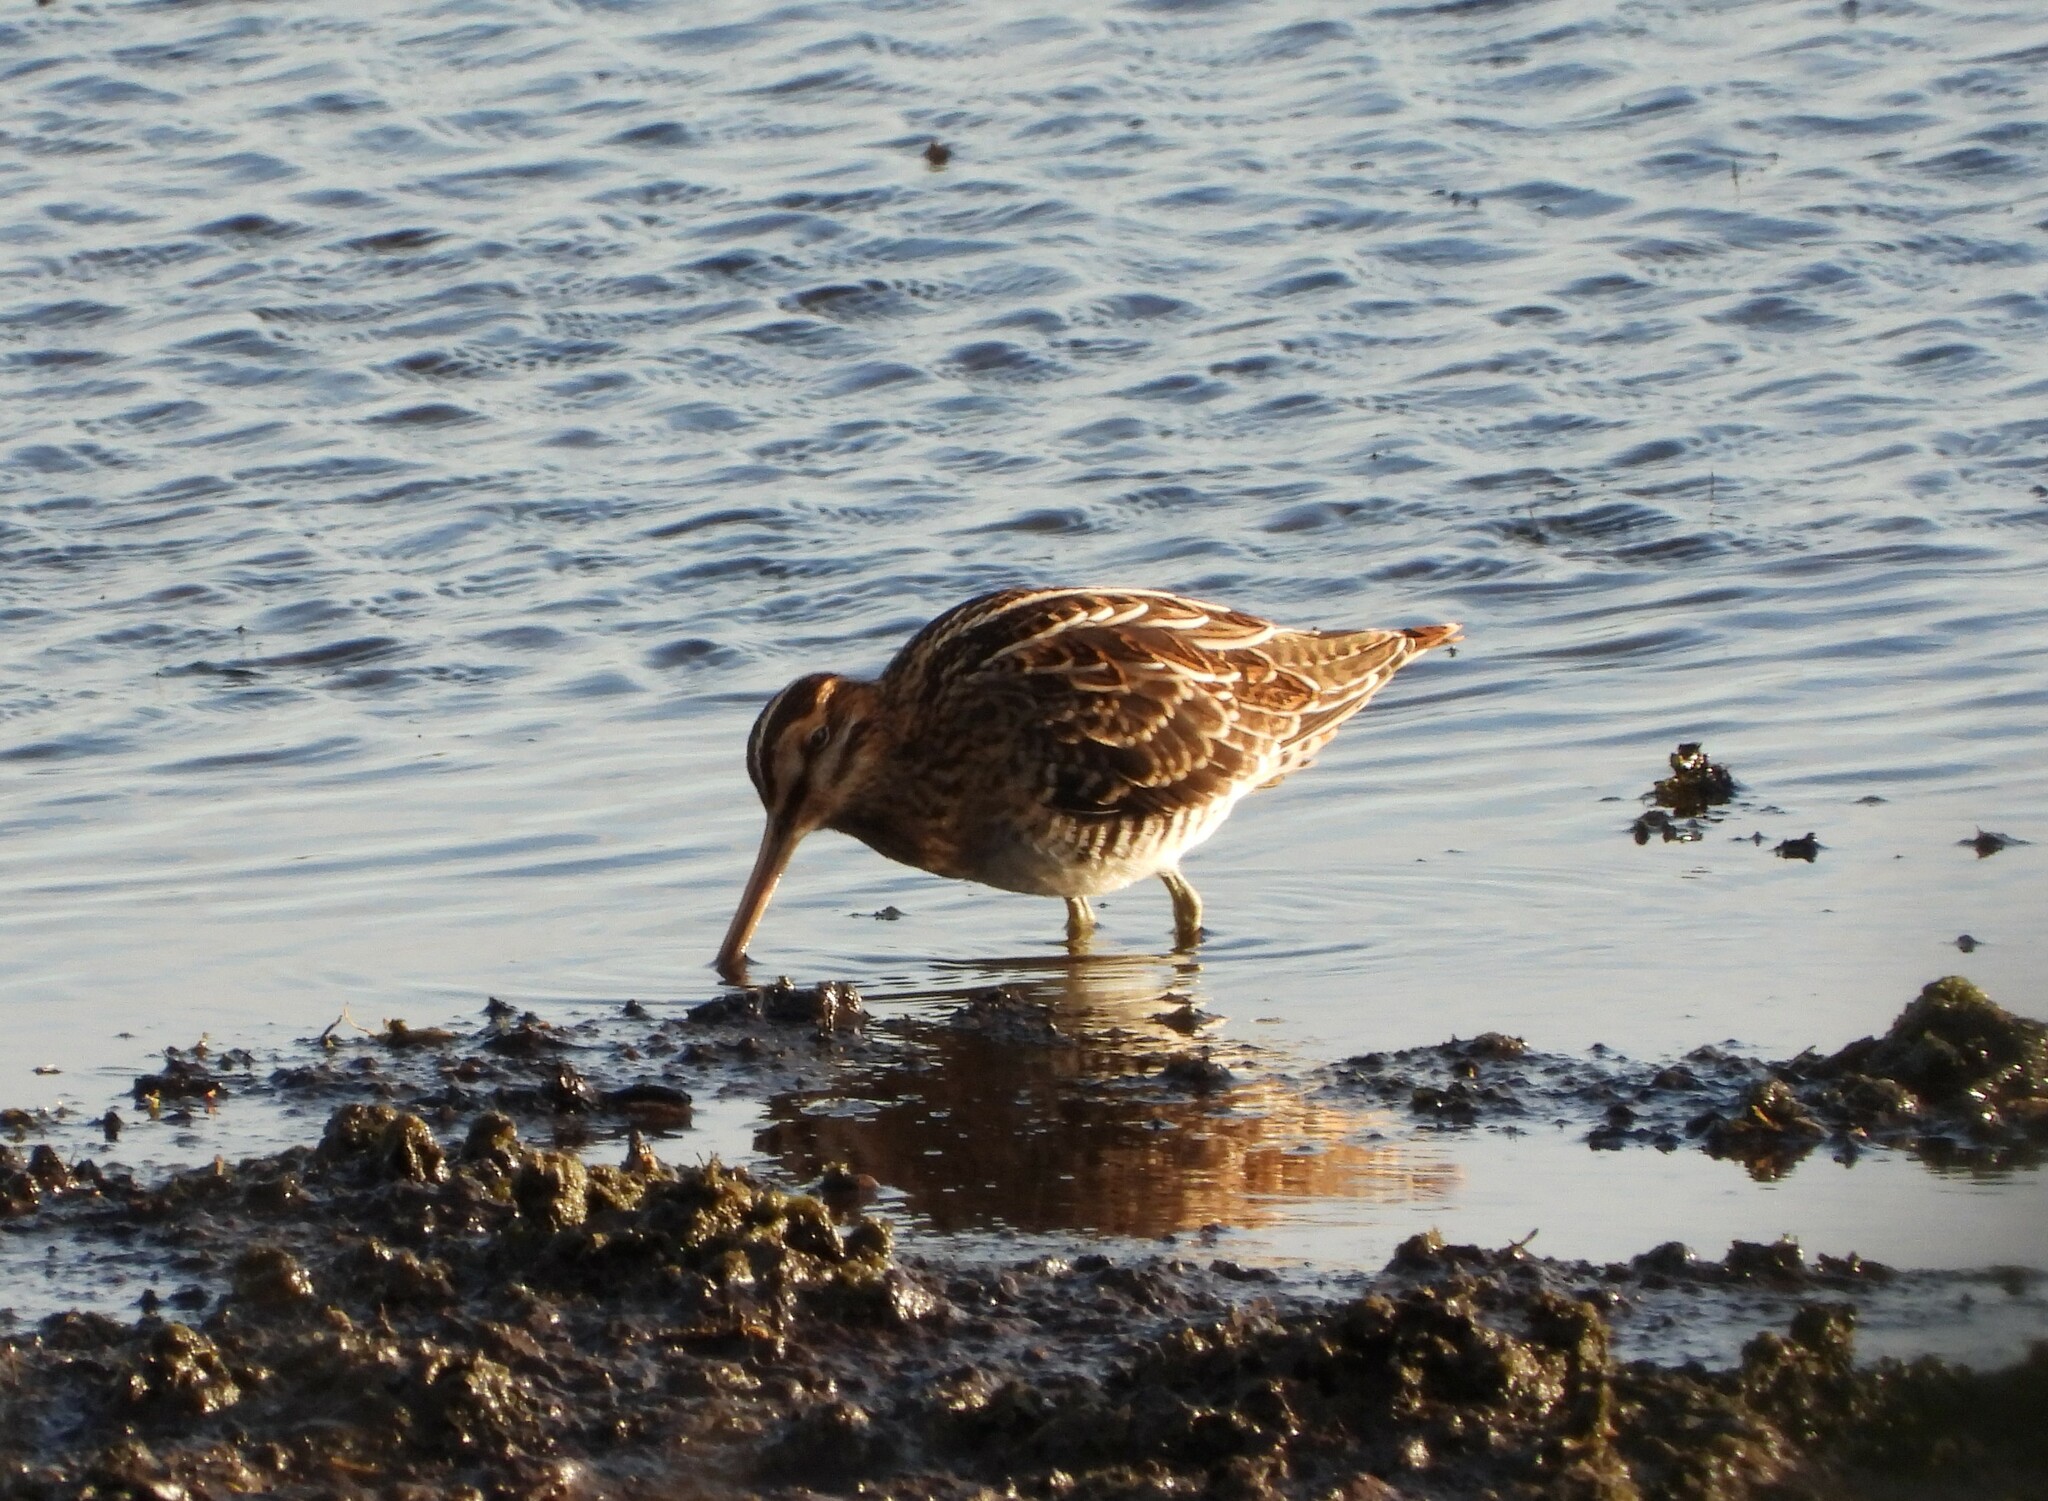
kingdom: Animalia
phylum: Chordata
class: Aves
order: Charadriiformes
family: Scolopacidae
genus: Gallinago
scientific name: Gallinago gallinago
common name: Common snipe
